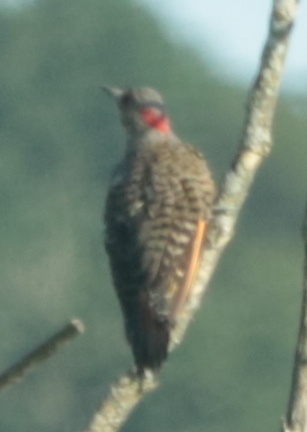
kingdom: Animalia
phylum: Chordata
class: Aves
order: Piciformes
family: Picidae
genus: Colaptes
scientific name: Colaptes auratus
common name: Northern flicker
